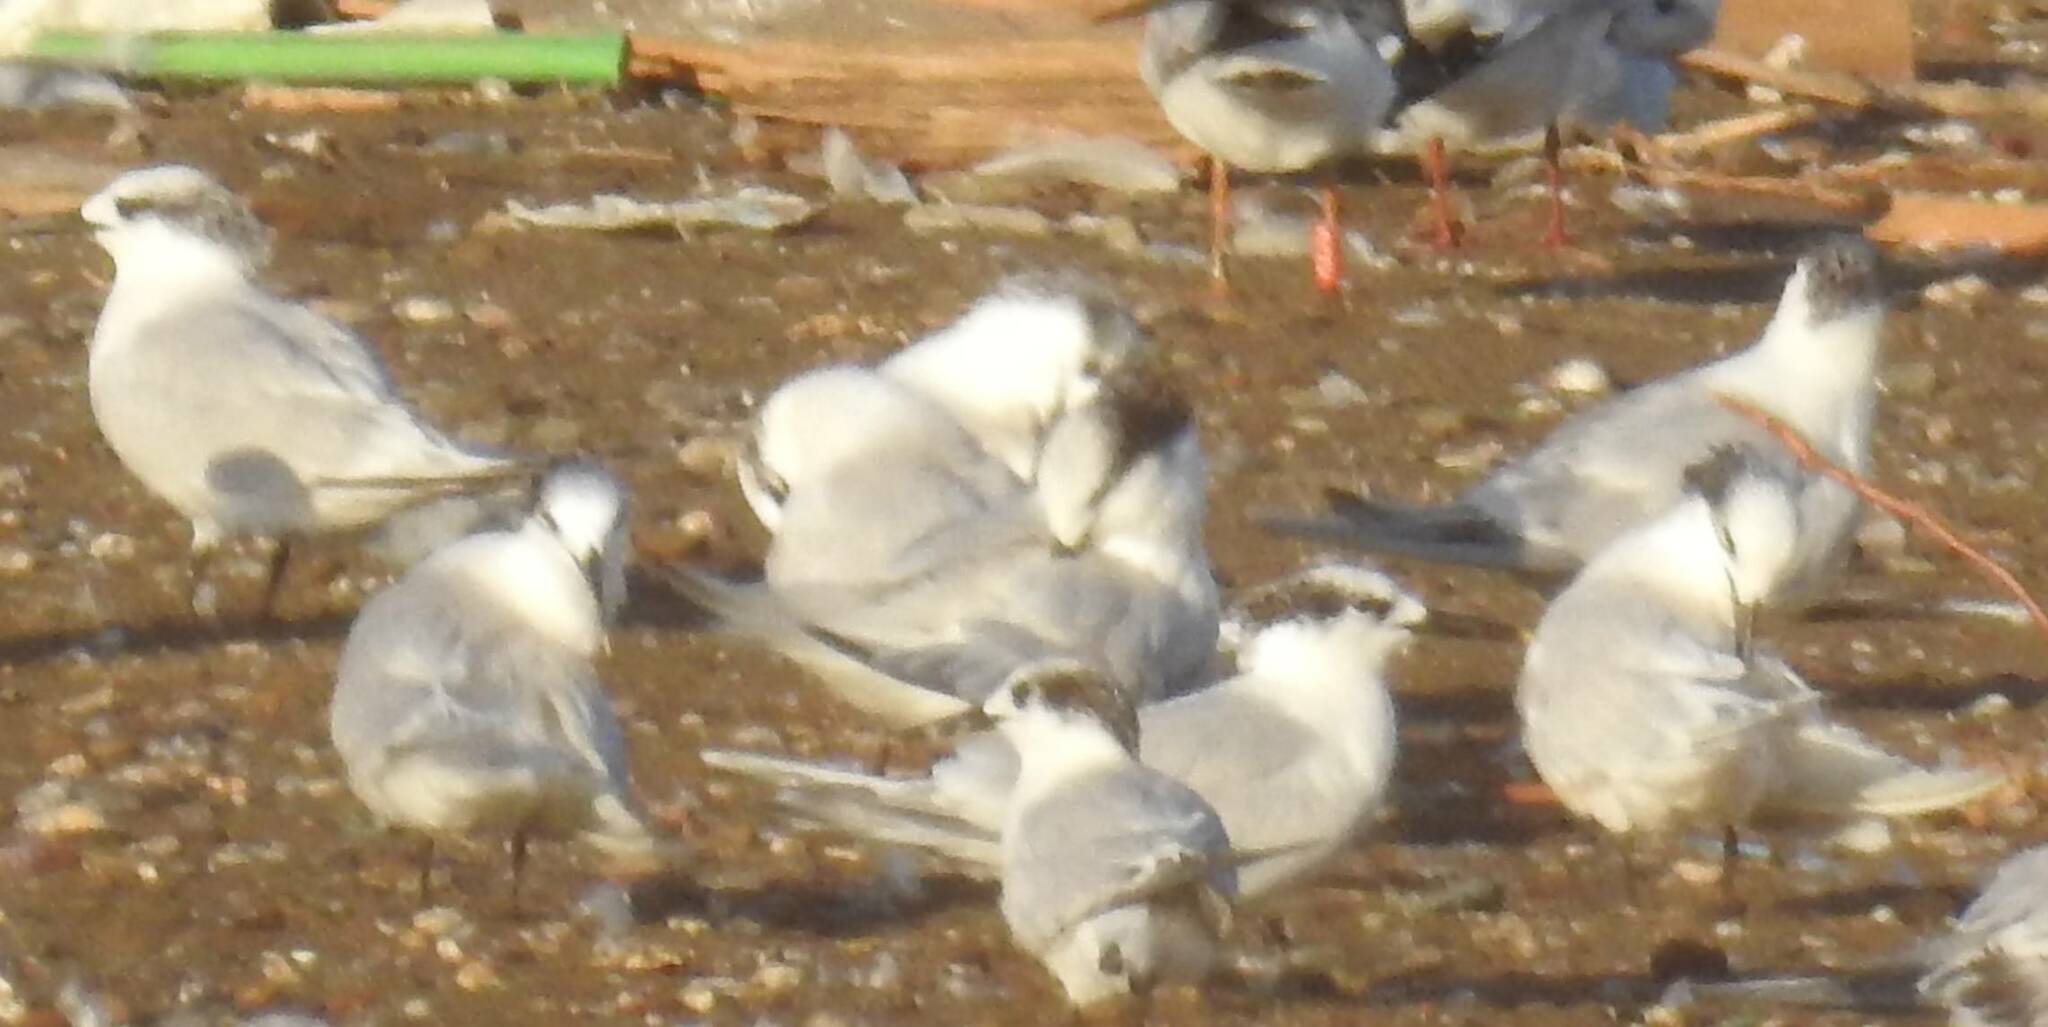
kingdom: Animalia
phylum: Chordata
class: Aves
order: Charadriiformes
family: Laridae
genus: Thalasseus
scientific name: Thalasseus sandvicensis
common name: Sandwich tern
